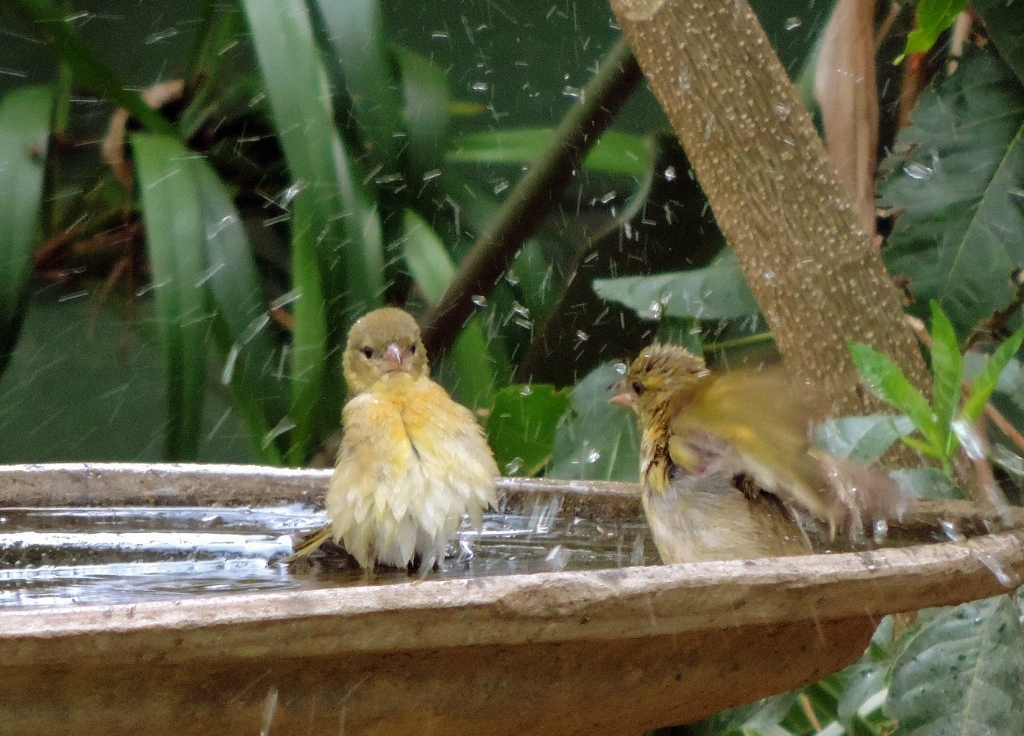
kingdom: Animalia
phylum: Chordata
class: Aves
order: Passeriformes
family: Ploceidae
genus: Ploceus
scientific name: Ploceus velatus
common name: Southern masked weaver
